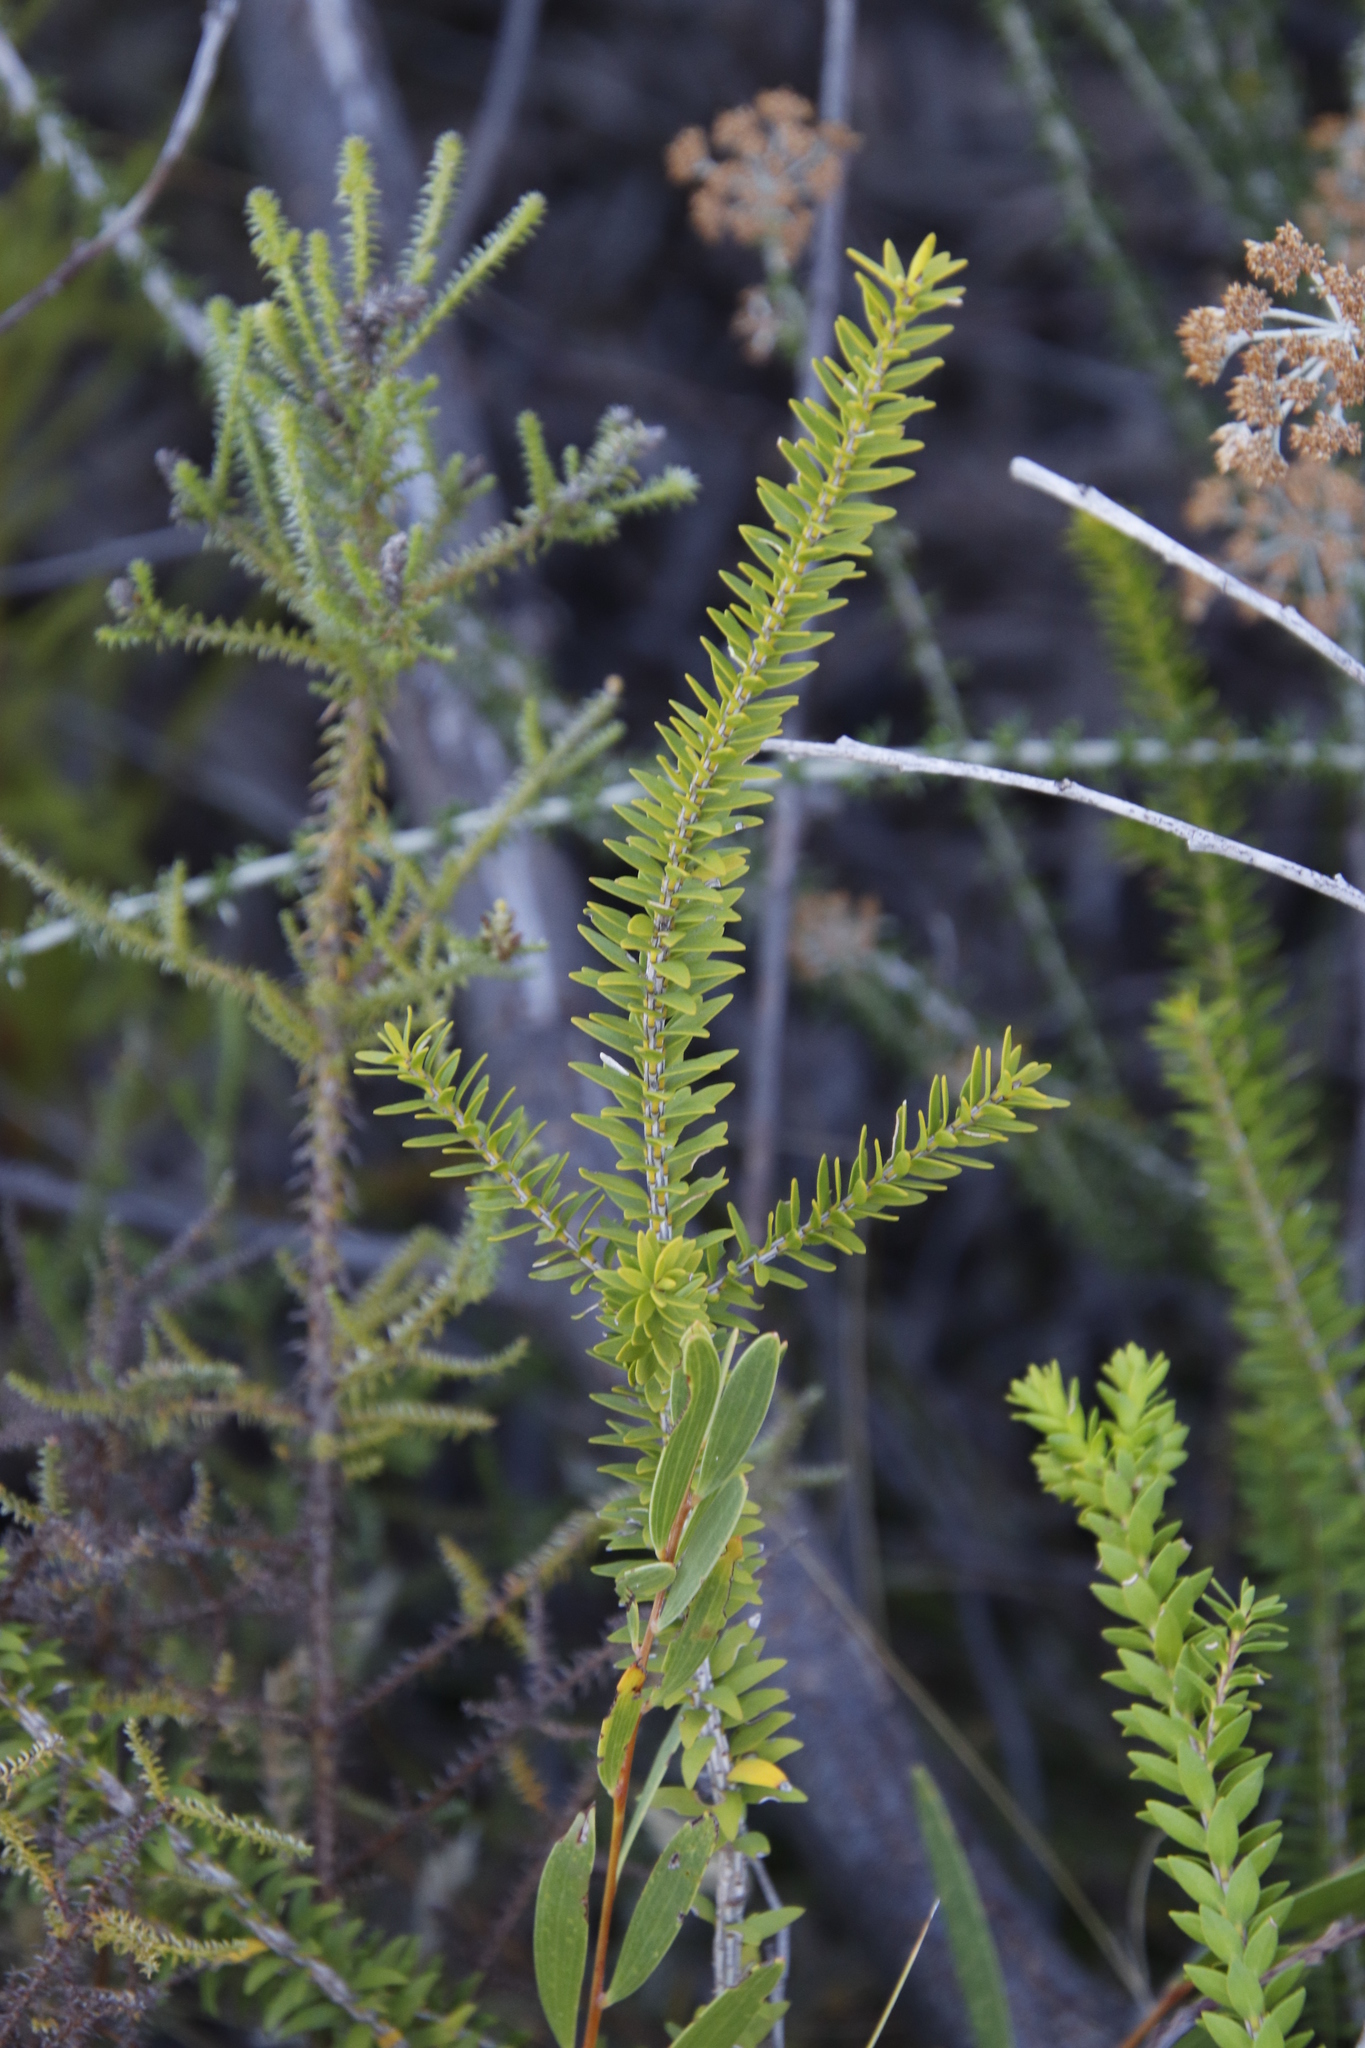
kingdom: Plantae
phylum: Tracheophyta
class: Magnoliopsida
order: Myrtales
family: Myrtaceae
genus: Melaleuca
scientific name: Melaleuca diosmifolia
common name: Green honey myrtle
